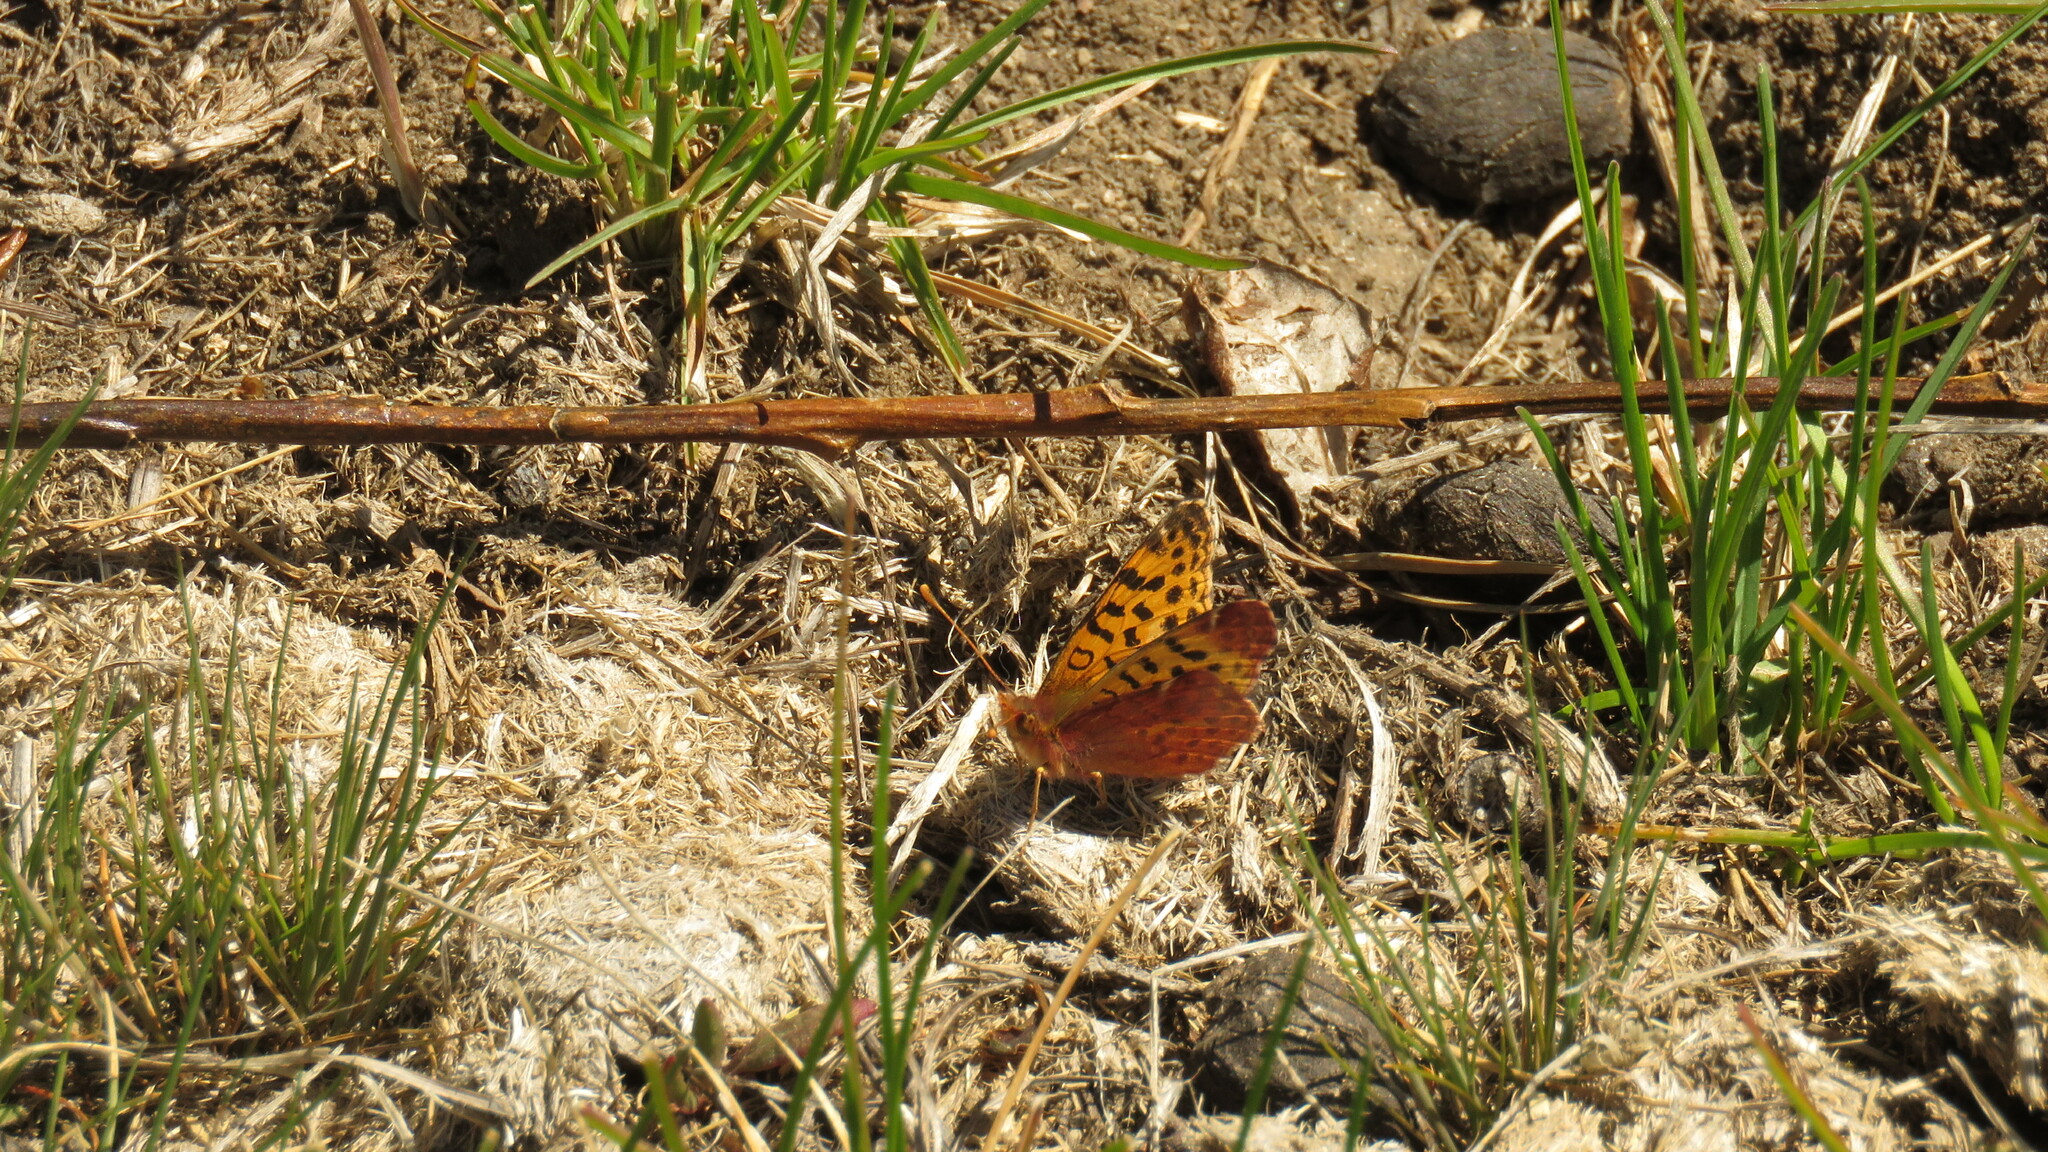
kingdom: Animalia
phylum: Arthropoda
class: Insecta
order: Lepidoptera
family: Nymphalidae
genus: Issoria
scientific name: Issoria Yramea cytheris
